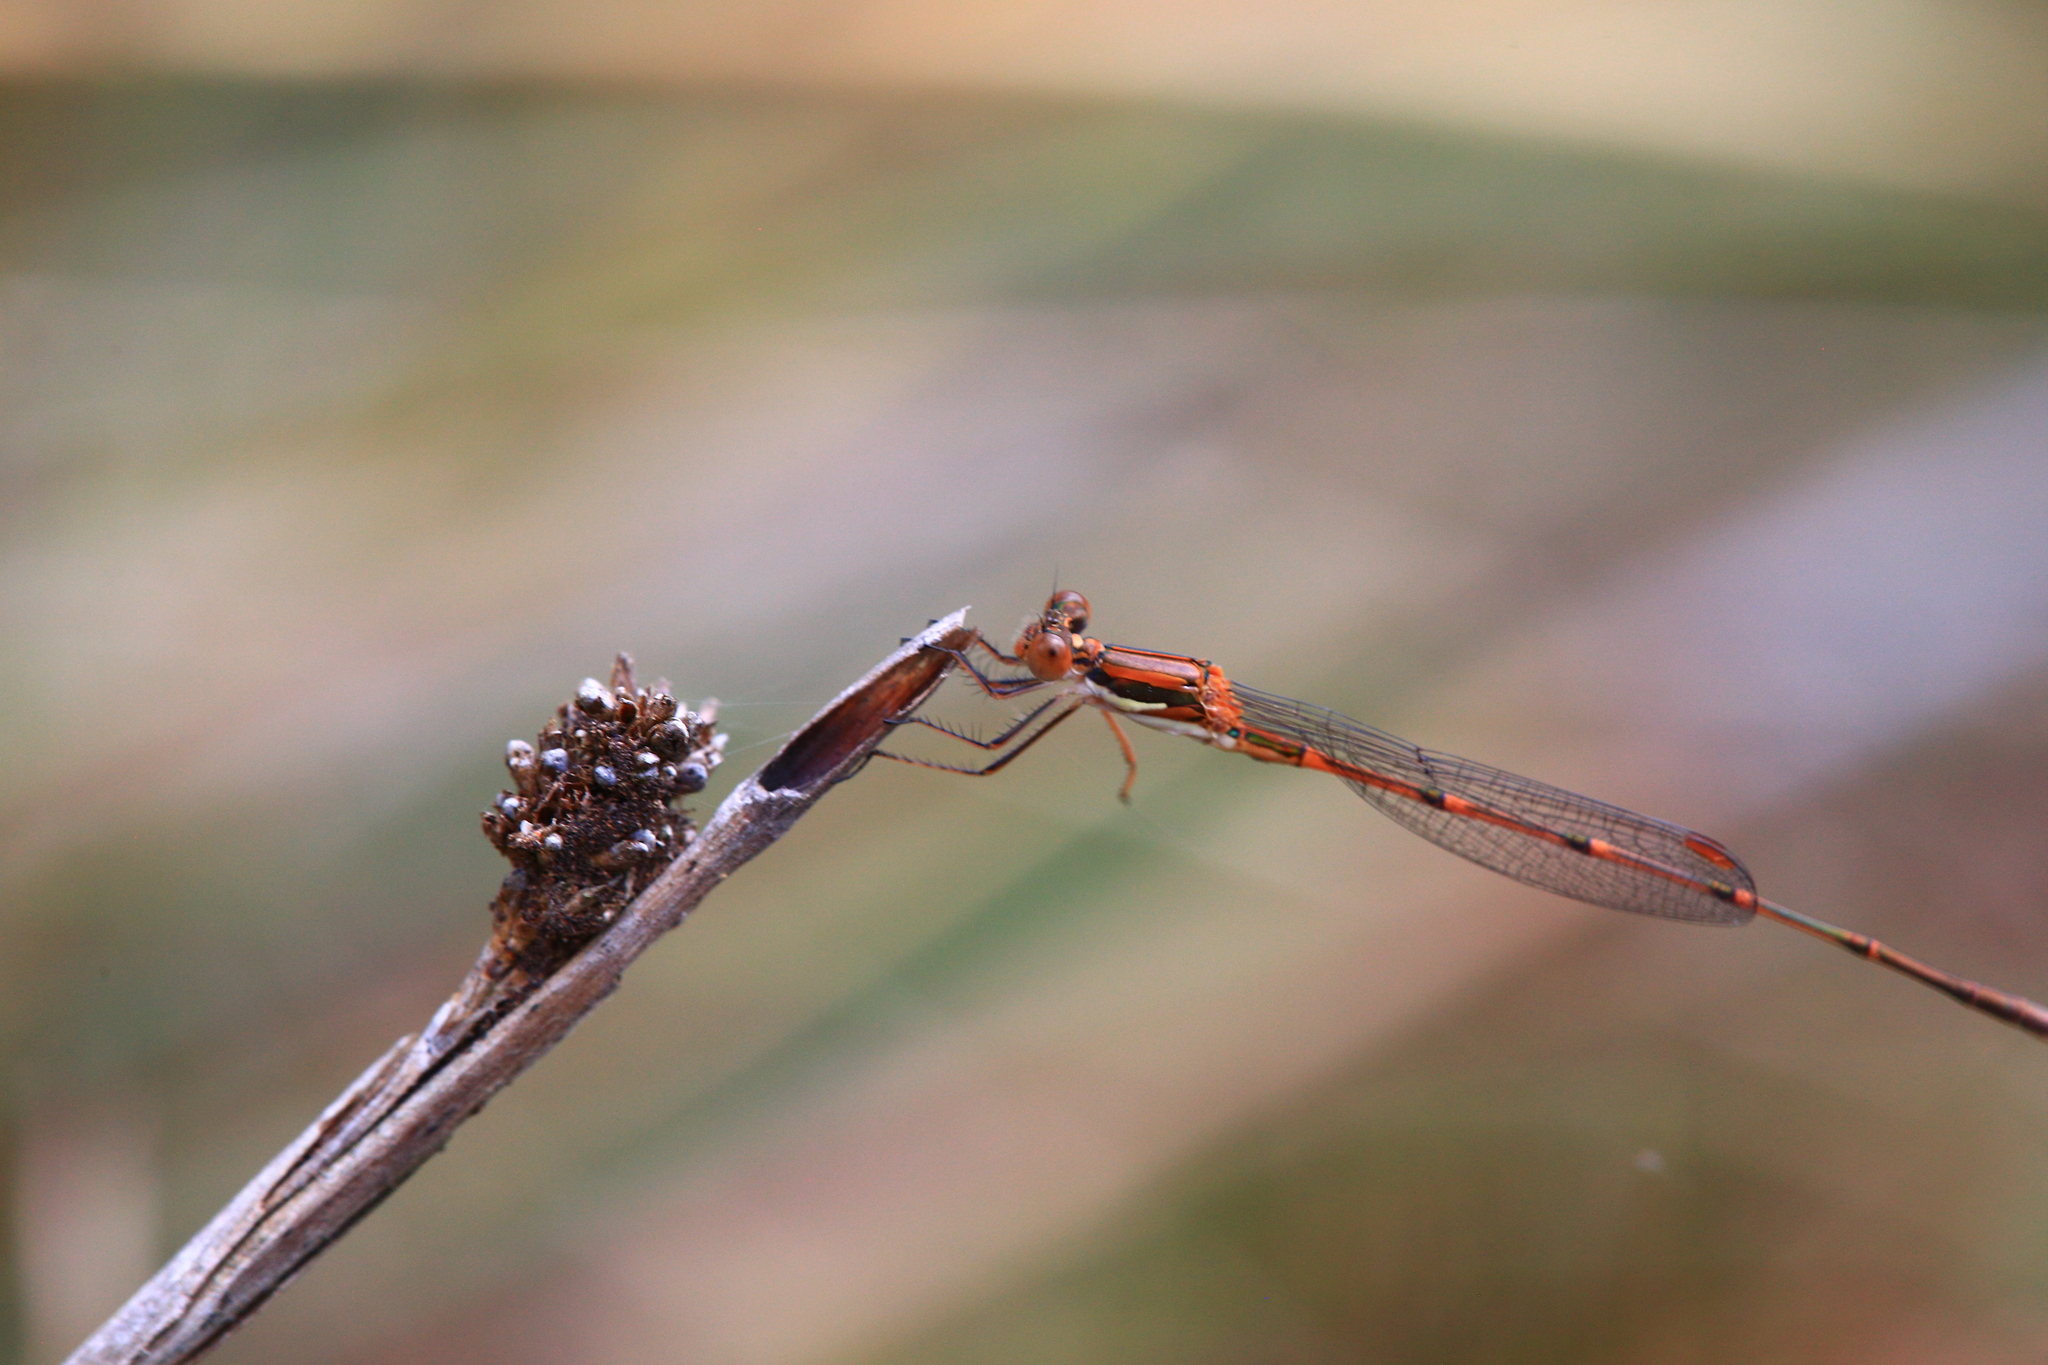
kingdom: Animalia
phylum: Arthropoda
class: Insecta
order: Odonata
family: Lestidae
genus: Austrolestes
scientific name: Austrolestes analis
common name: Slender ringtail
